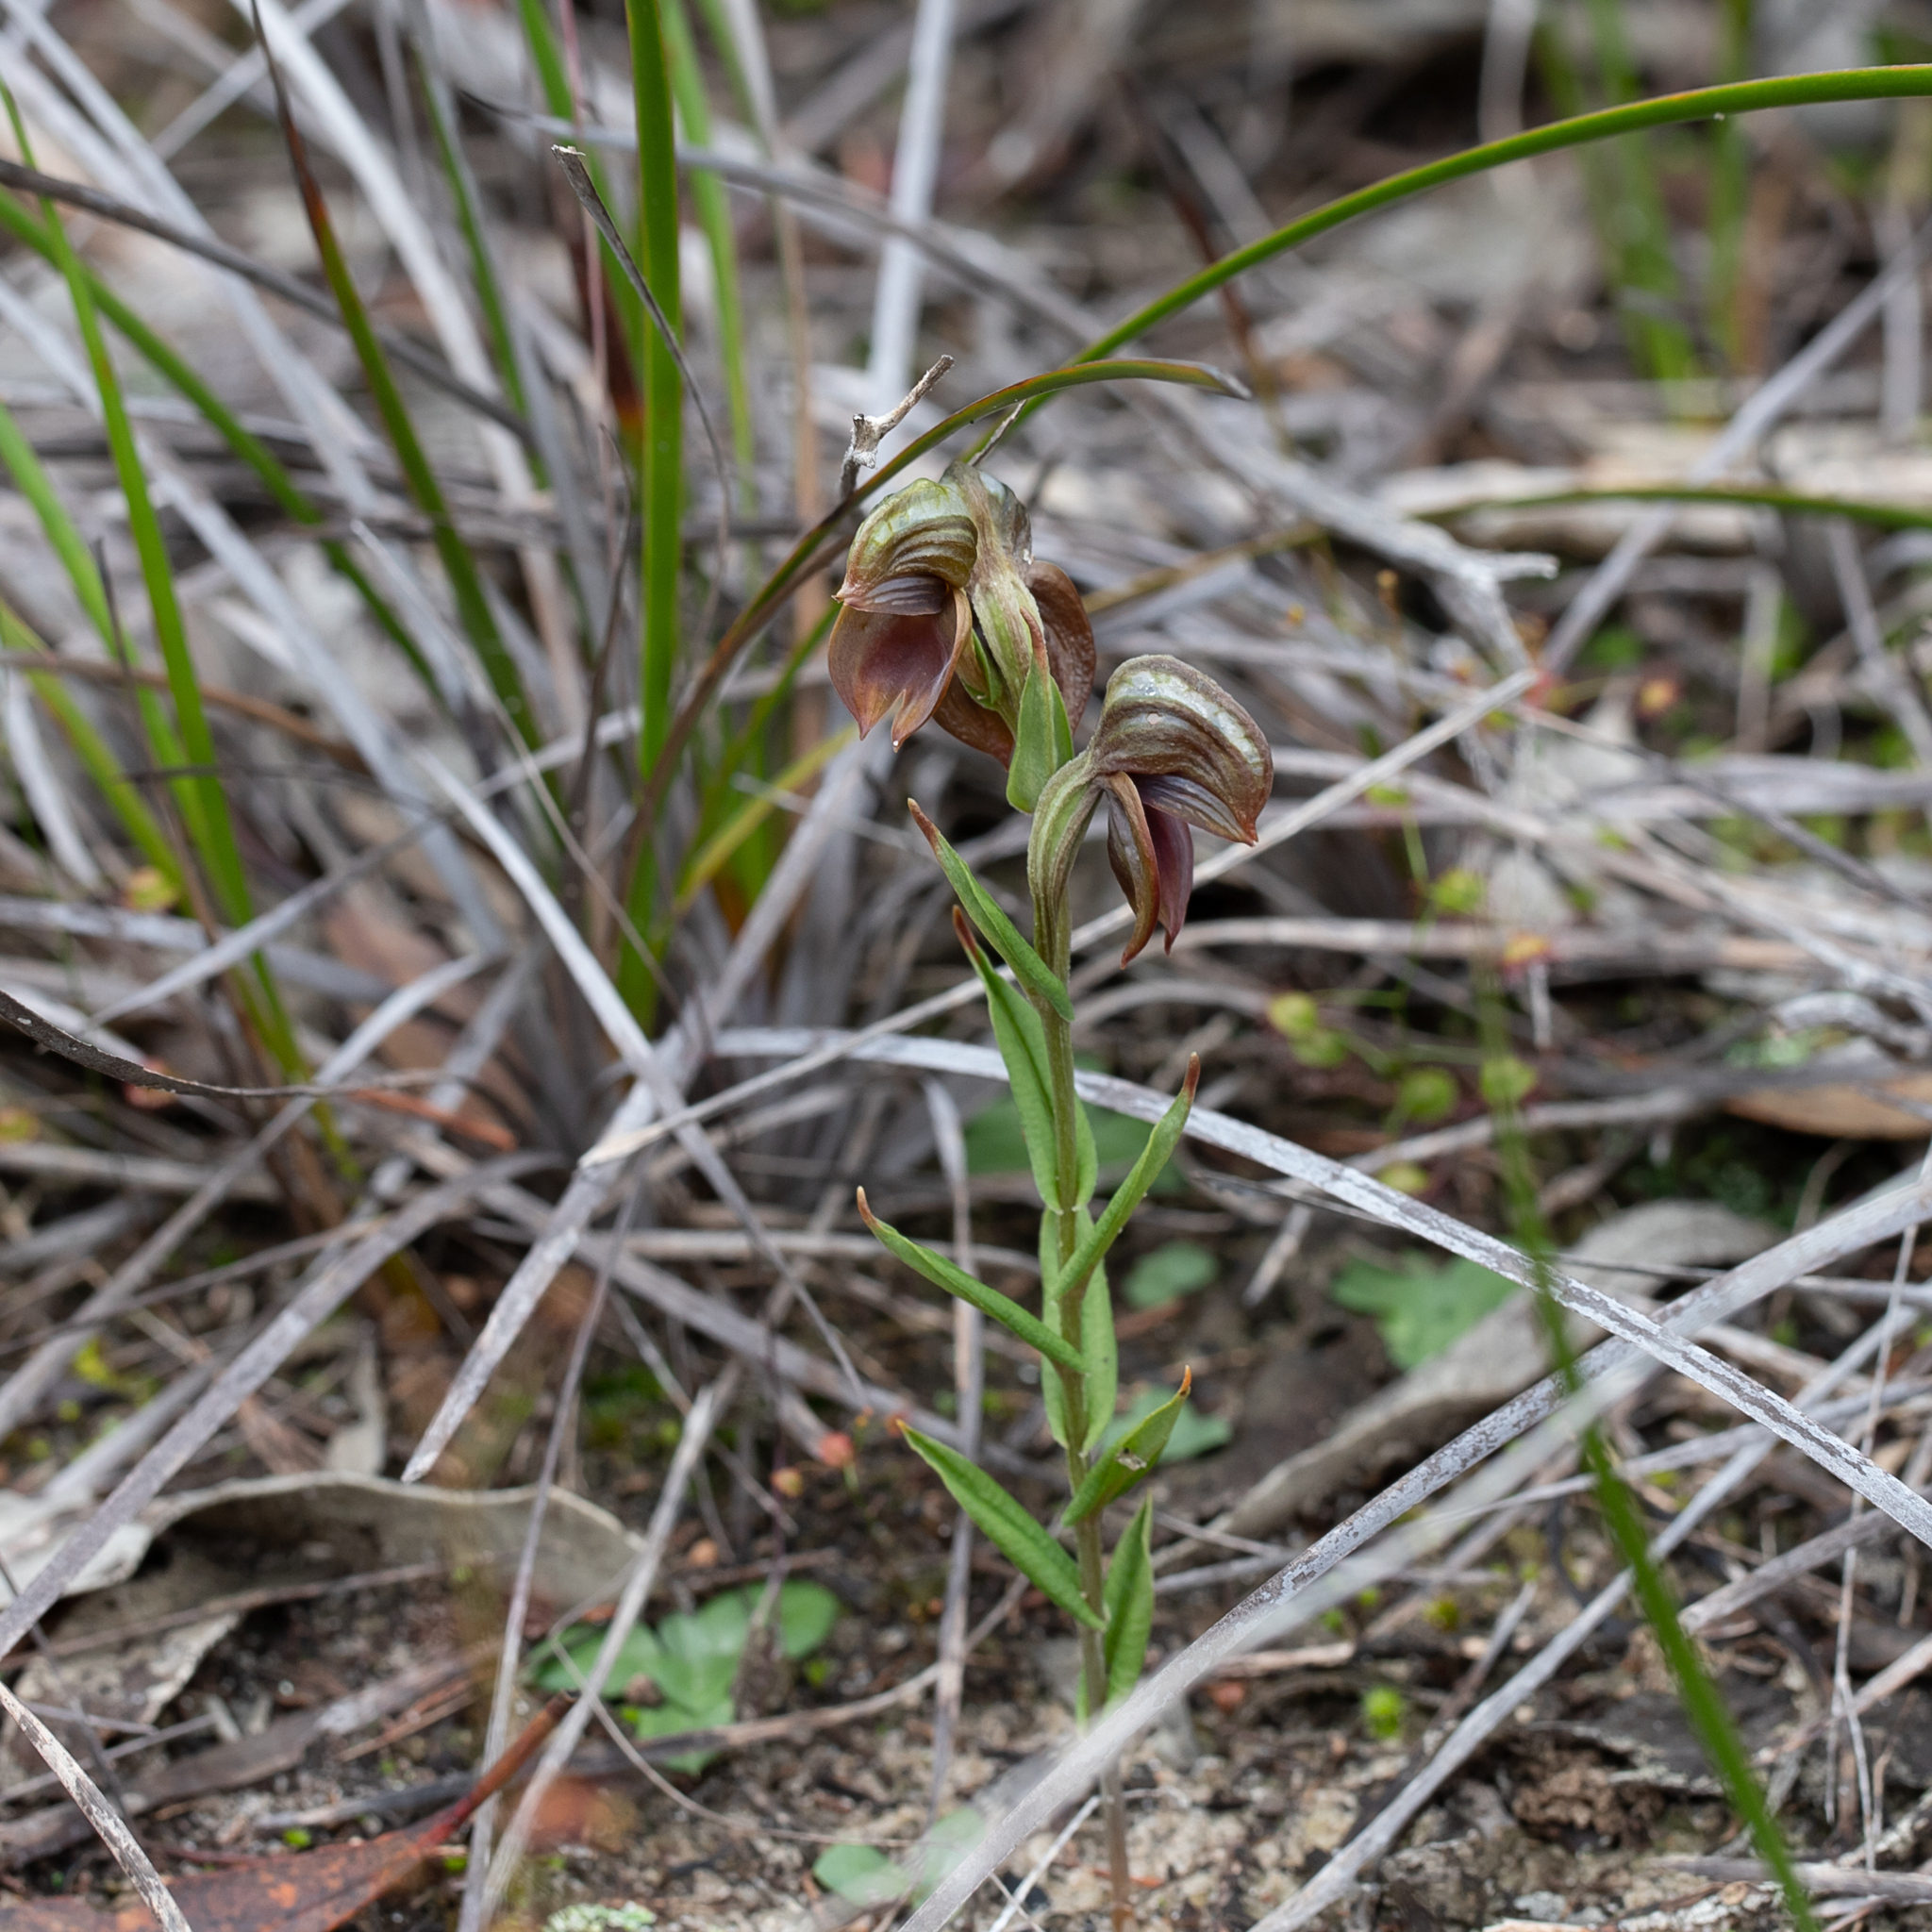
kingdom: Plantae
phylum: Tracheophyta
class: Liliopsida
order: Asparagales
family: Orchidaceae
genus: Pterostylis
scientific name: Pterostylis sanguinea
